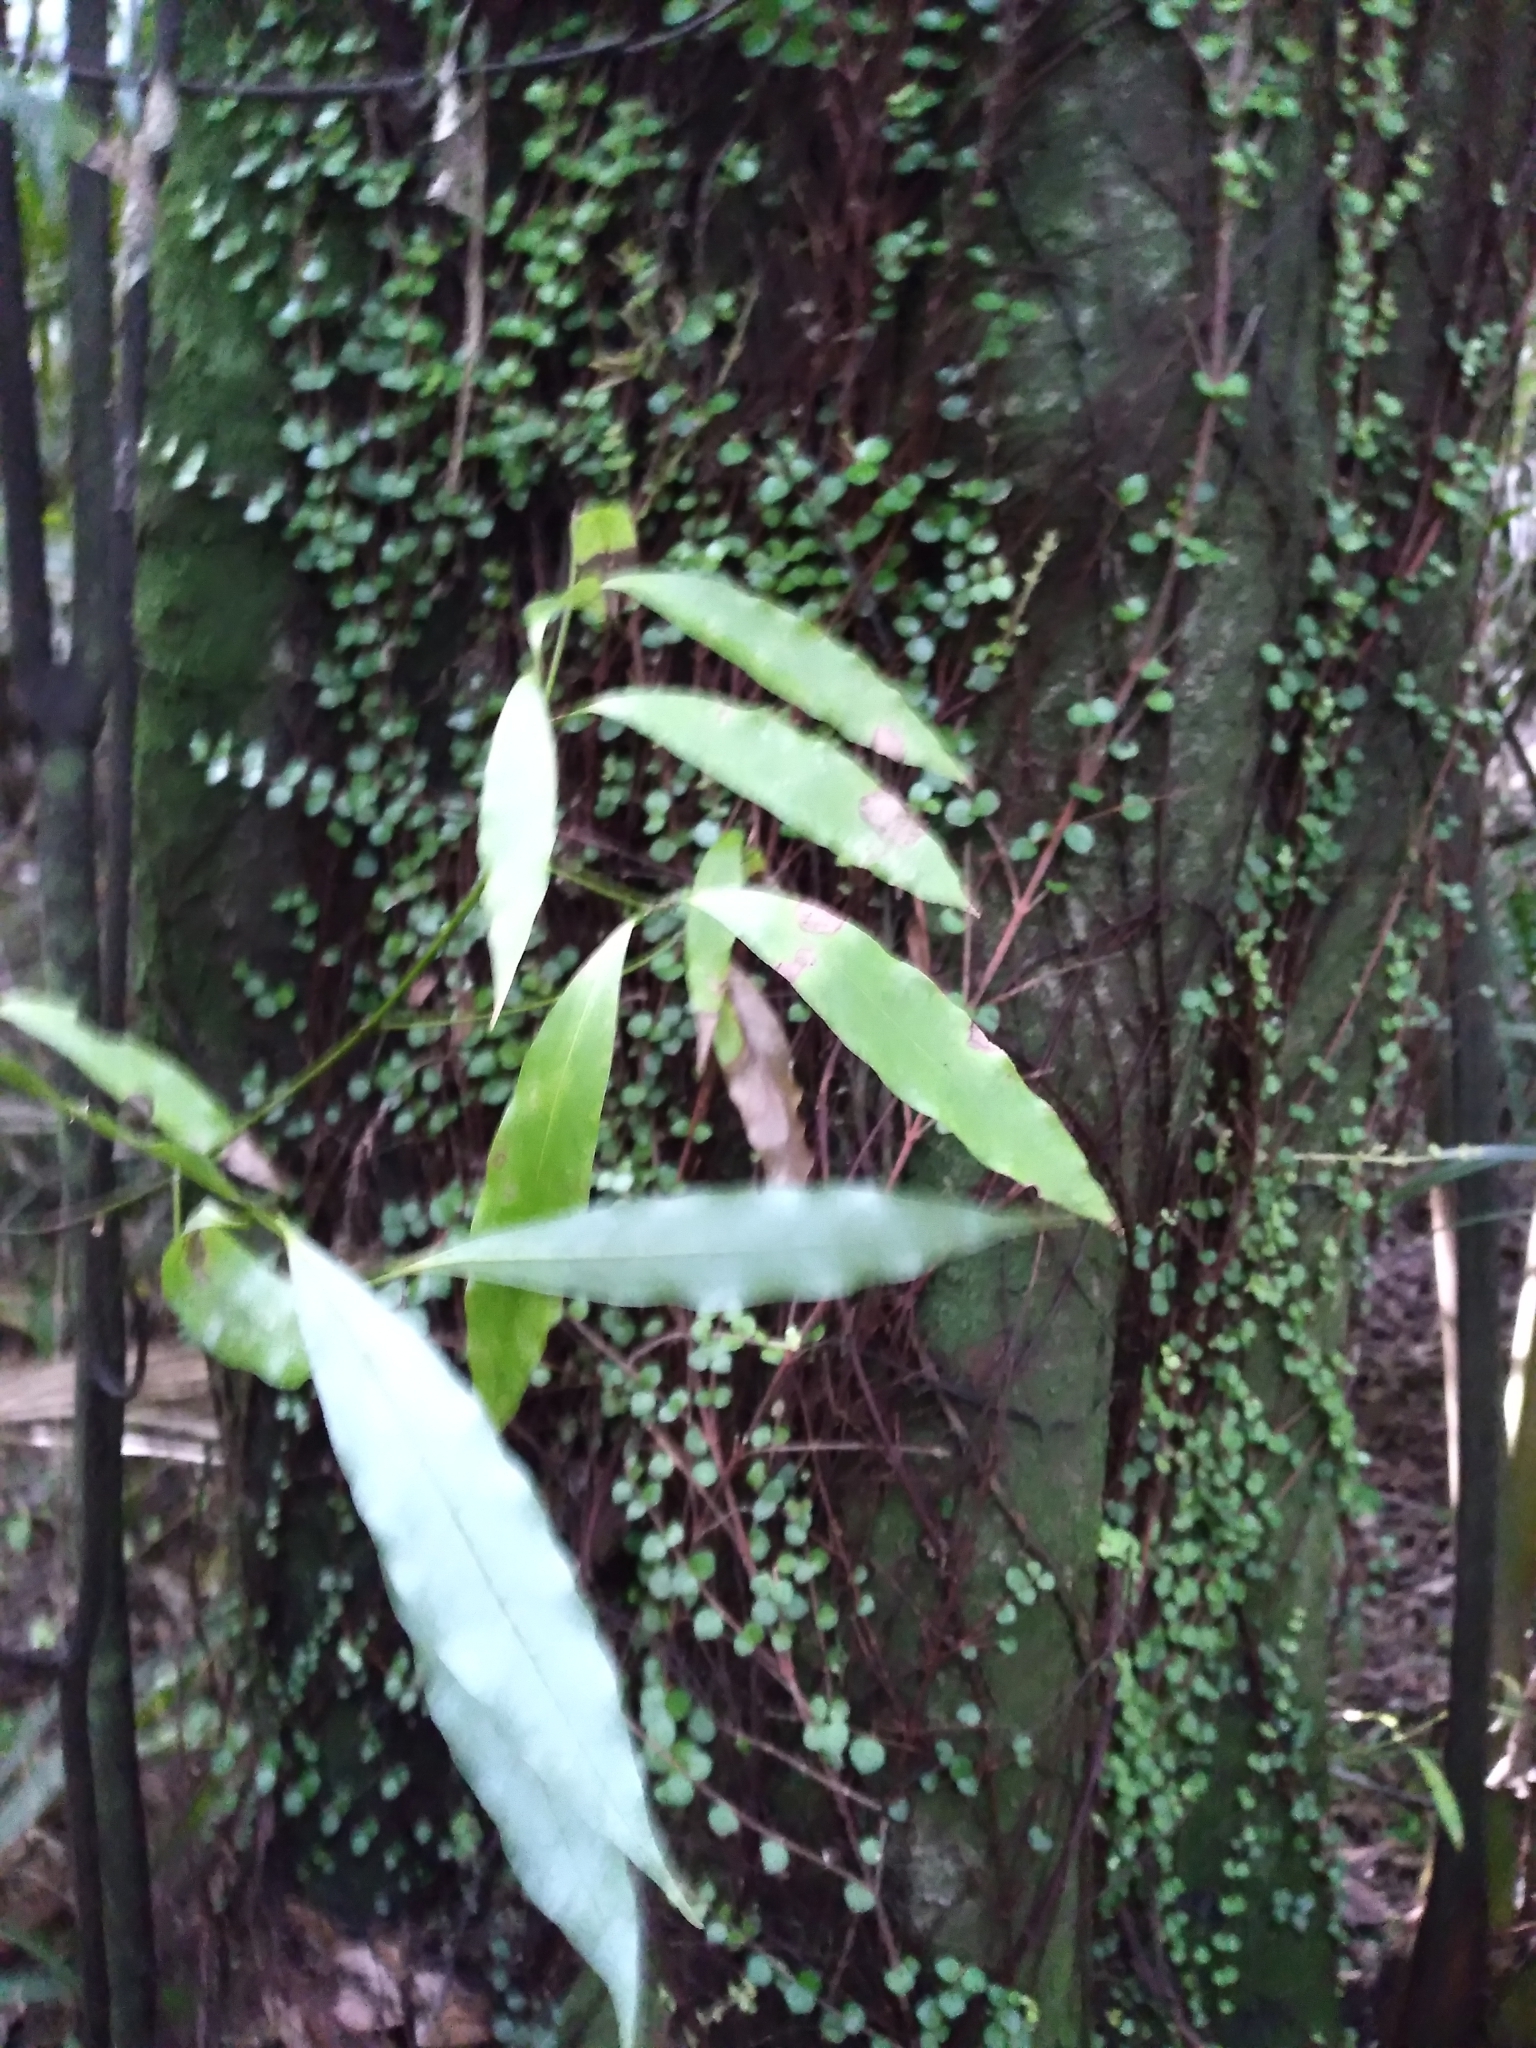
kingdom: Plantae
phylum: Tracheophyta
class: Magnoliopsida
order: Laurales
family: Lauraceae
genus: Beilschmiedia
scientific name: Beilschmiedia tawa
